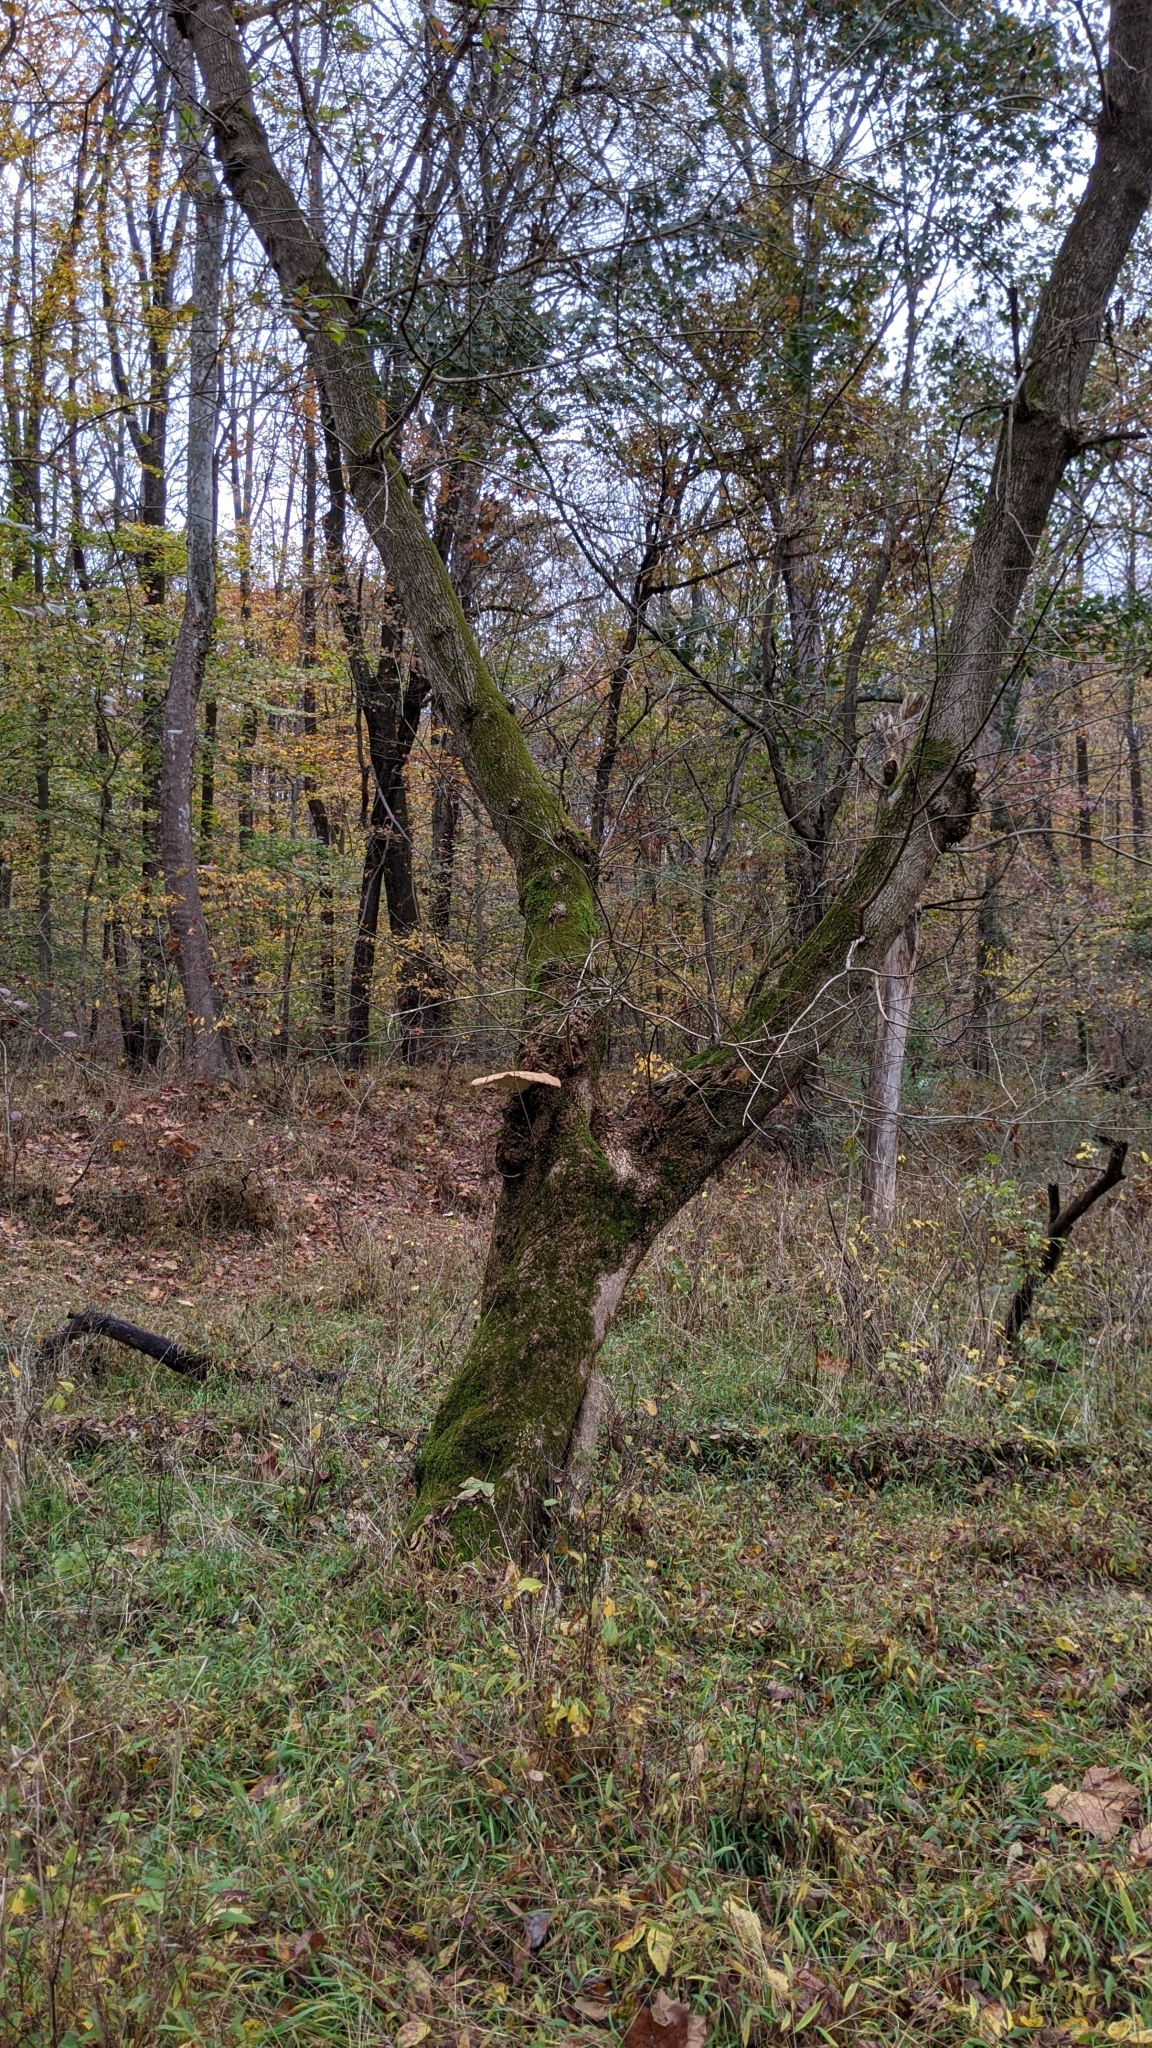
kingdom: Fungi
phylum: Basidiomycota
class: Agaricomycetes
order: Polyporales
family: Polyporaceae
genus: Cerioporus
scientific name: Cerioporus squamosus
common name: Dryad's saddle
